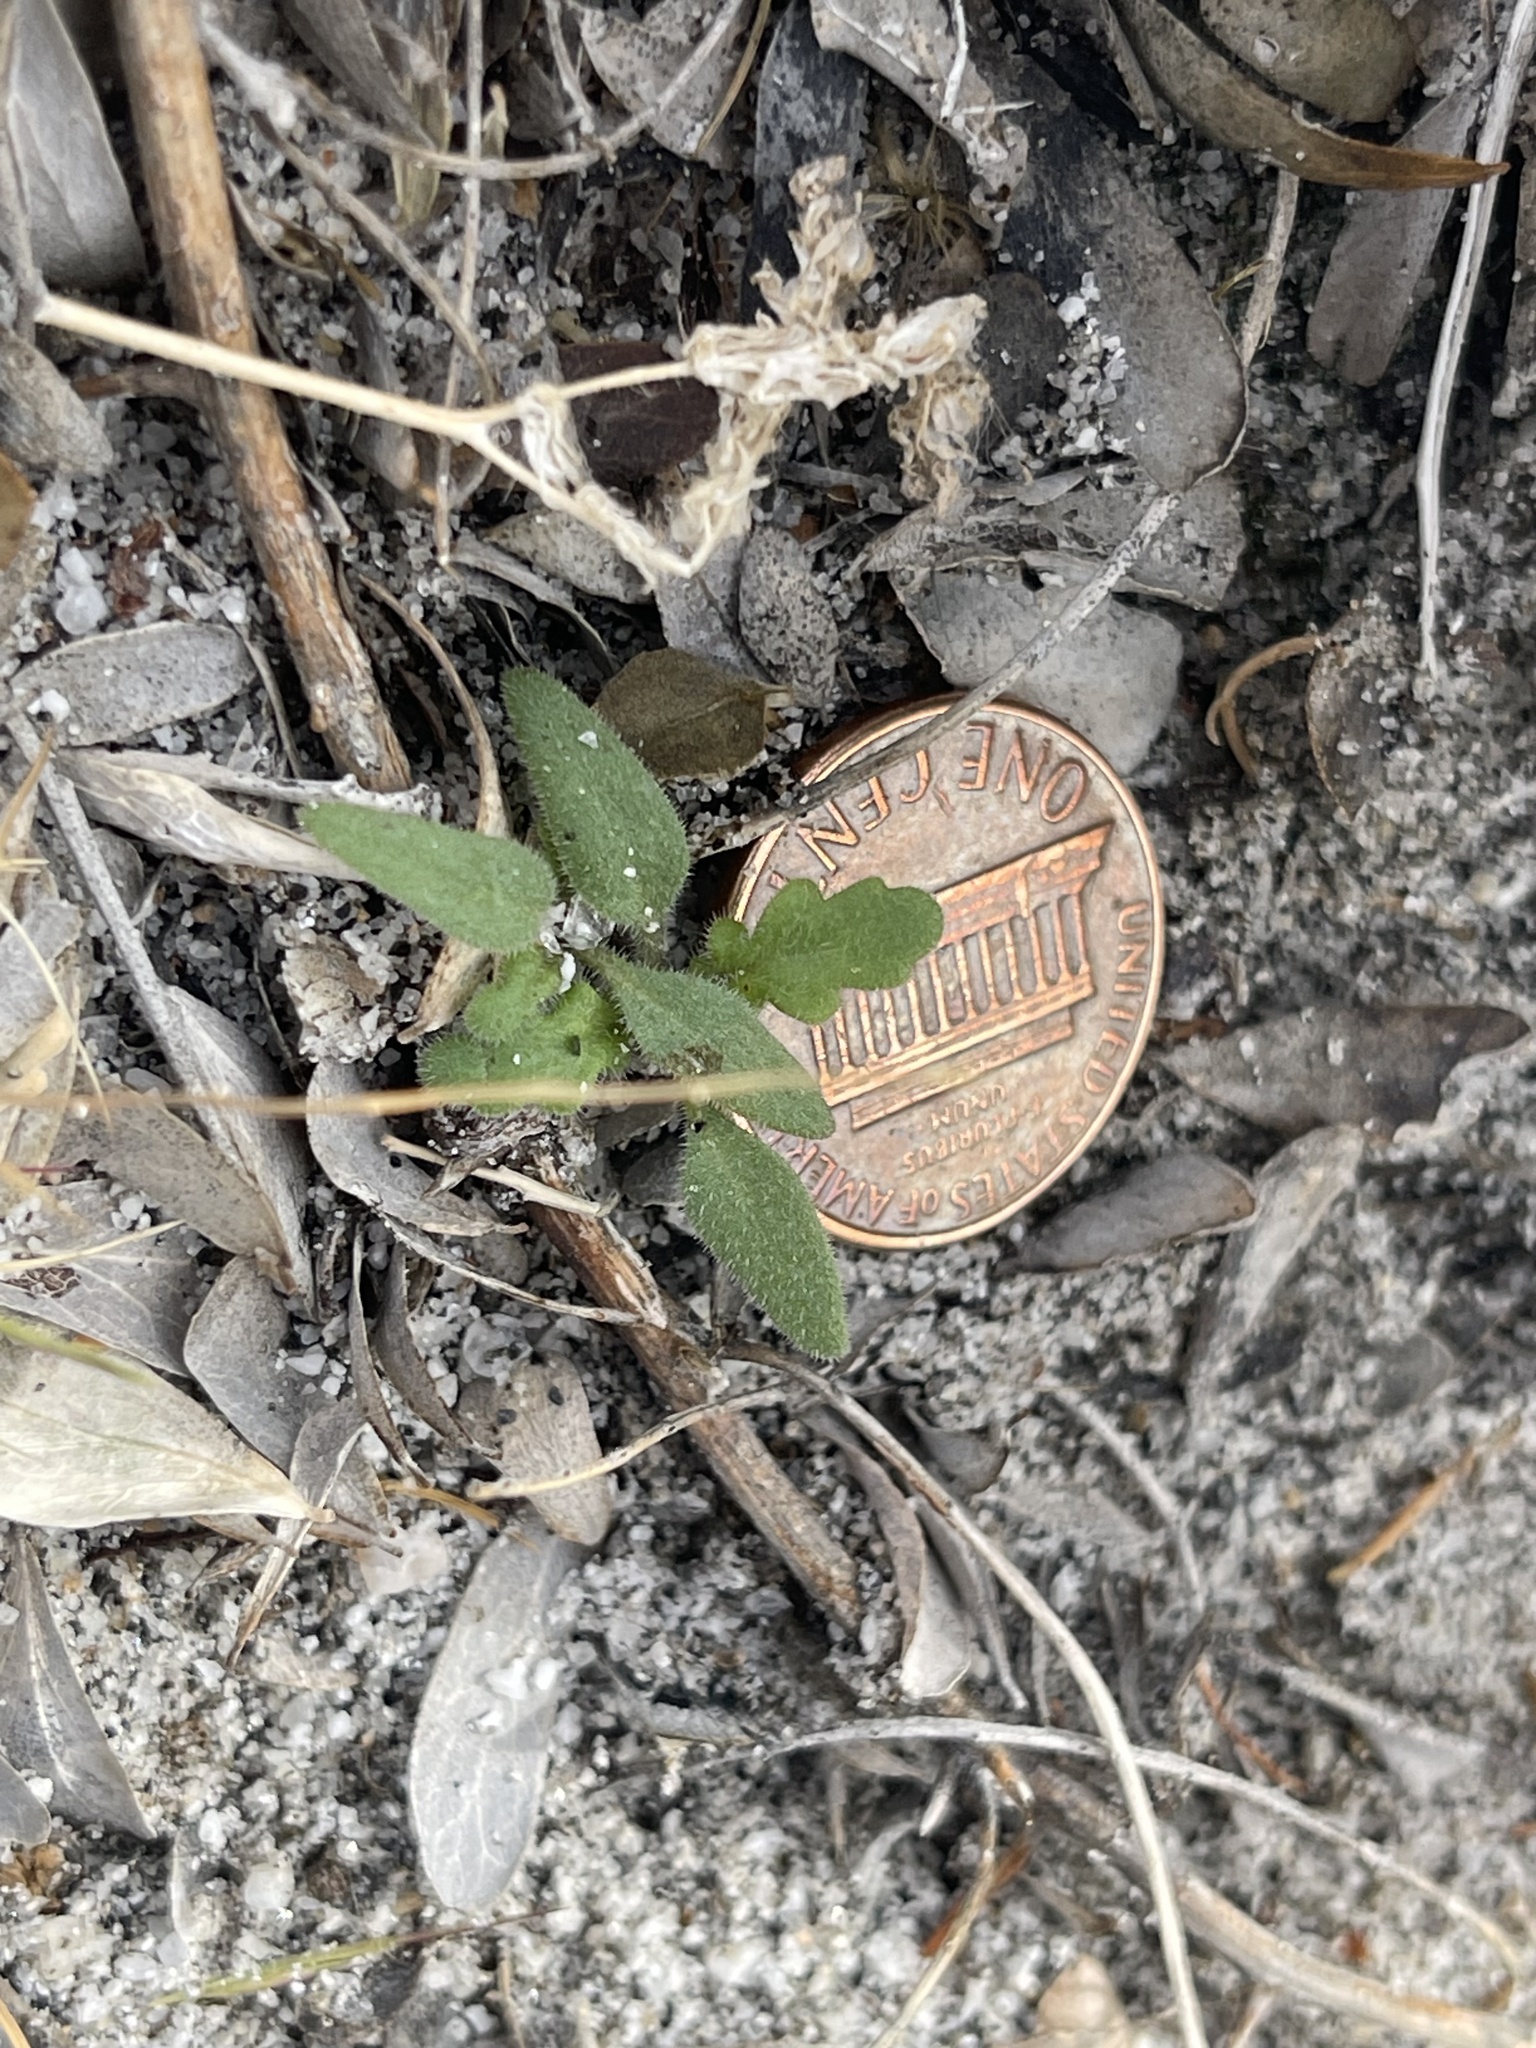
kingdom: Plantae
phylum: Tracheophyta
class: Magnoliopsida
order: Boraginales
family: Hydrophyllaceae
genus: Phacelia
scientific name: Phacelia crenulata
